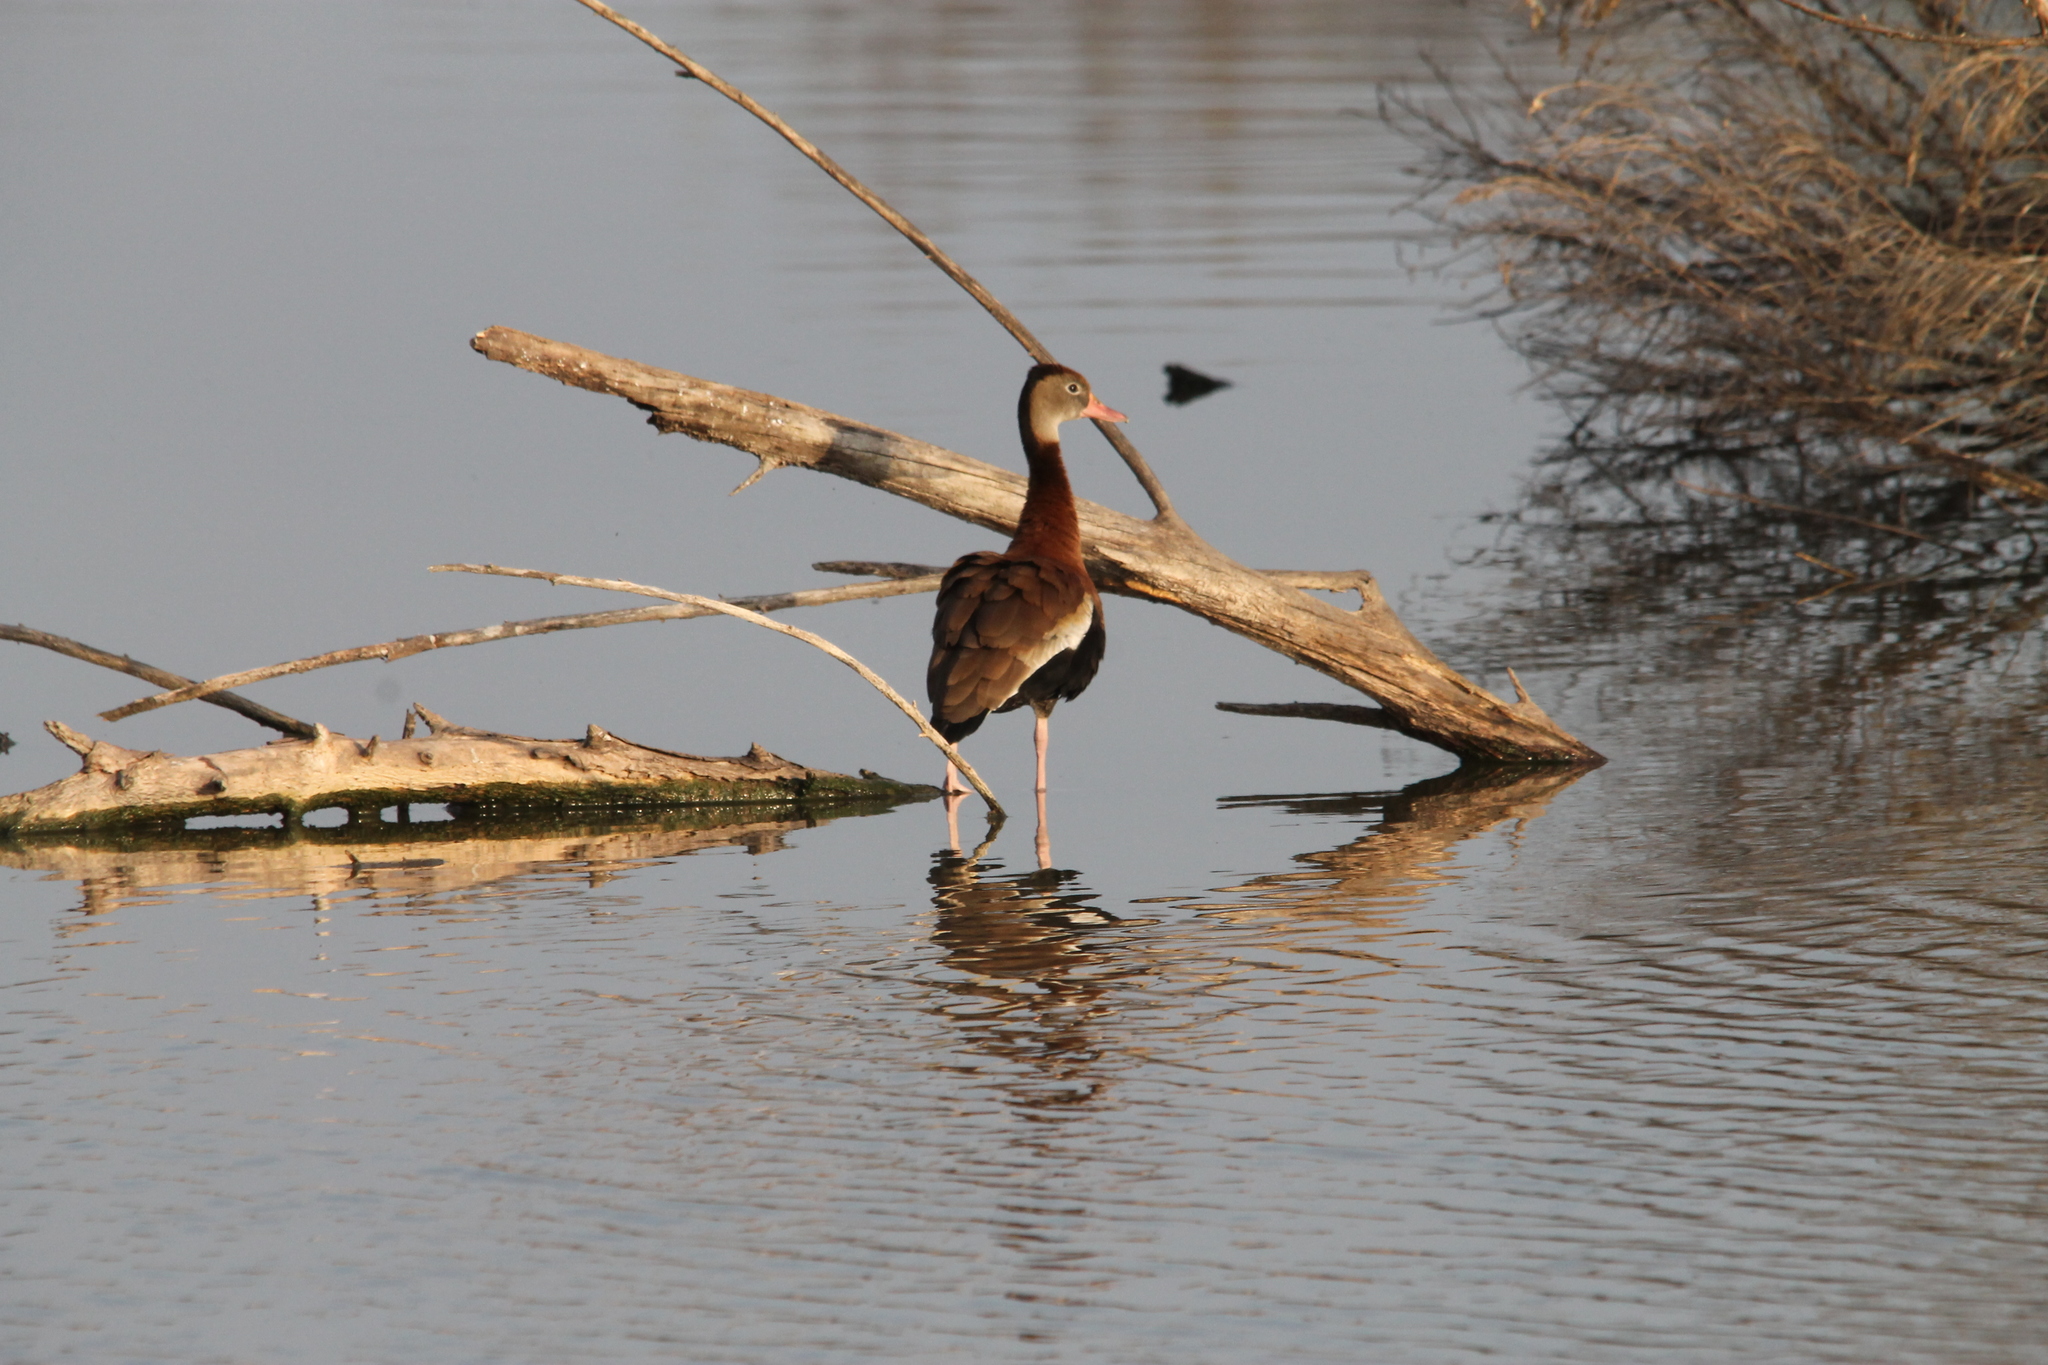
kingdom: Animalia
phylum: Chordata
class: Aves
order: Anseriformes
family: Anatidae
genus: Dendrocygna
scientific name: Dendrocygna autumnalis
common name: Black-bellied whistling duck
